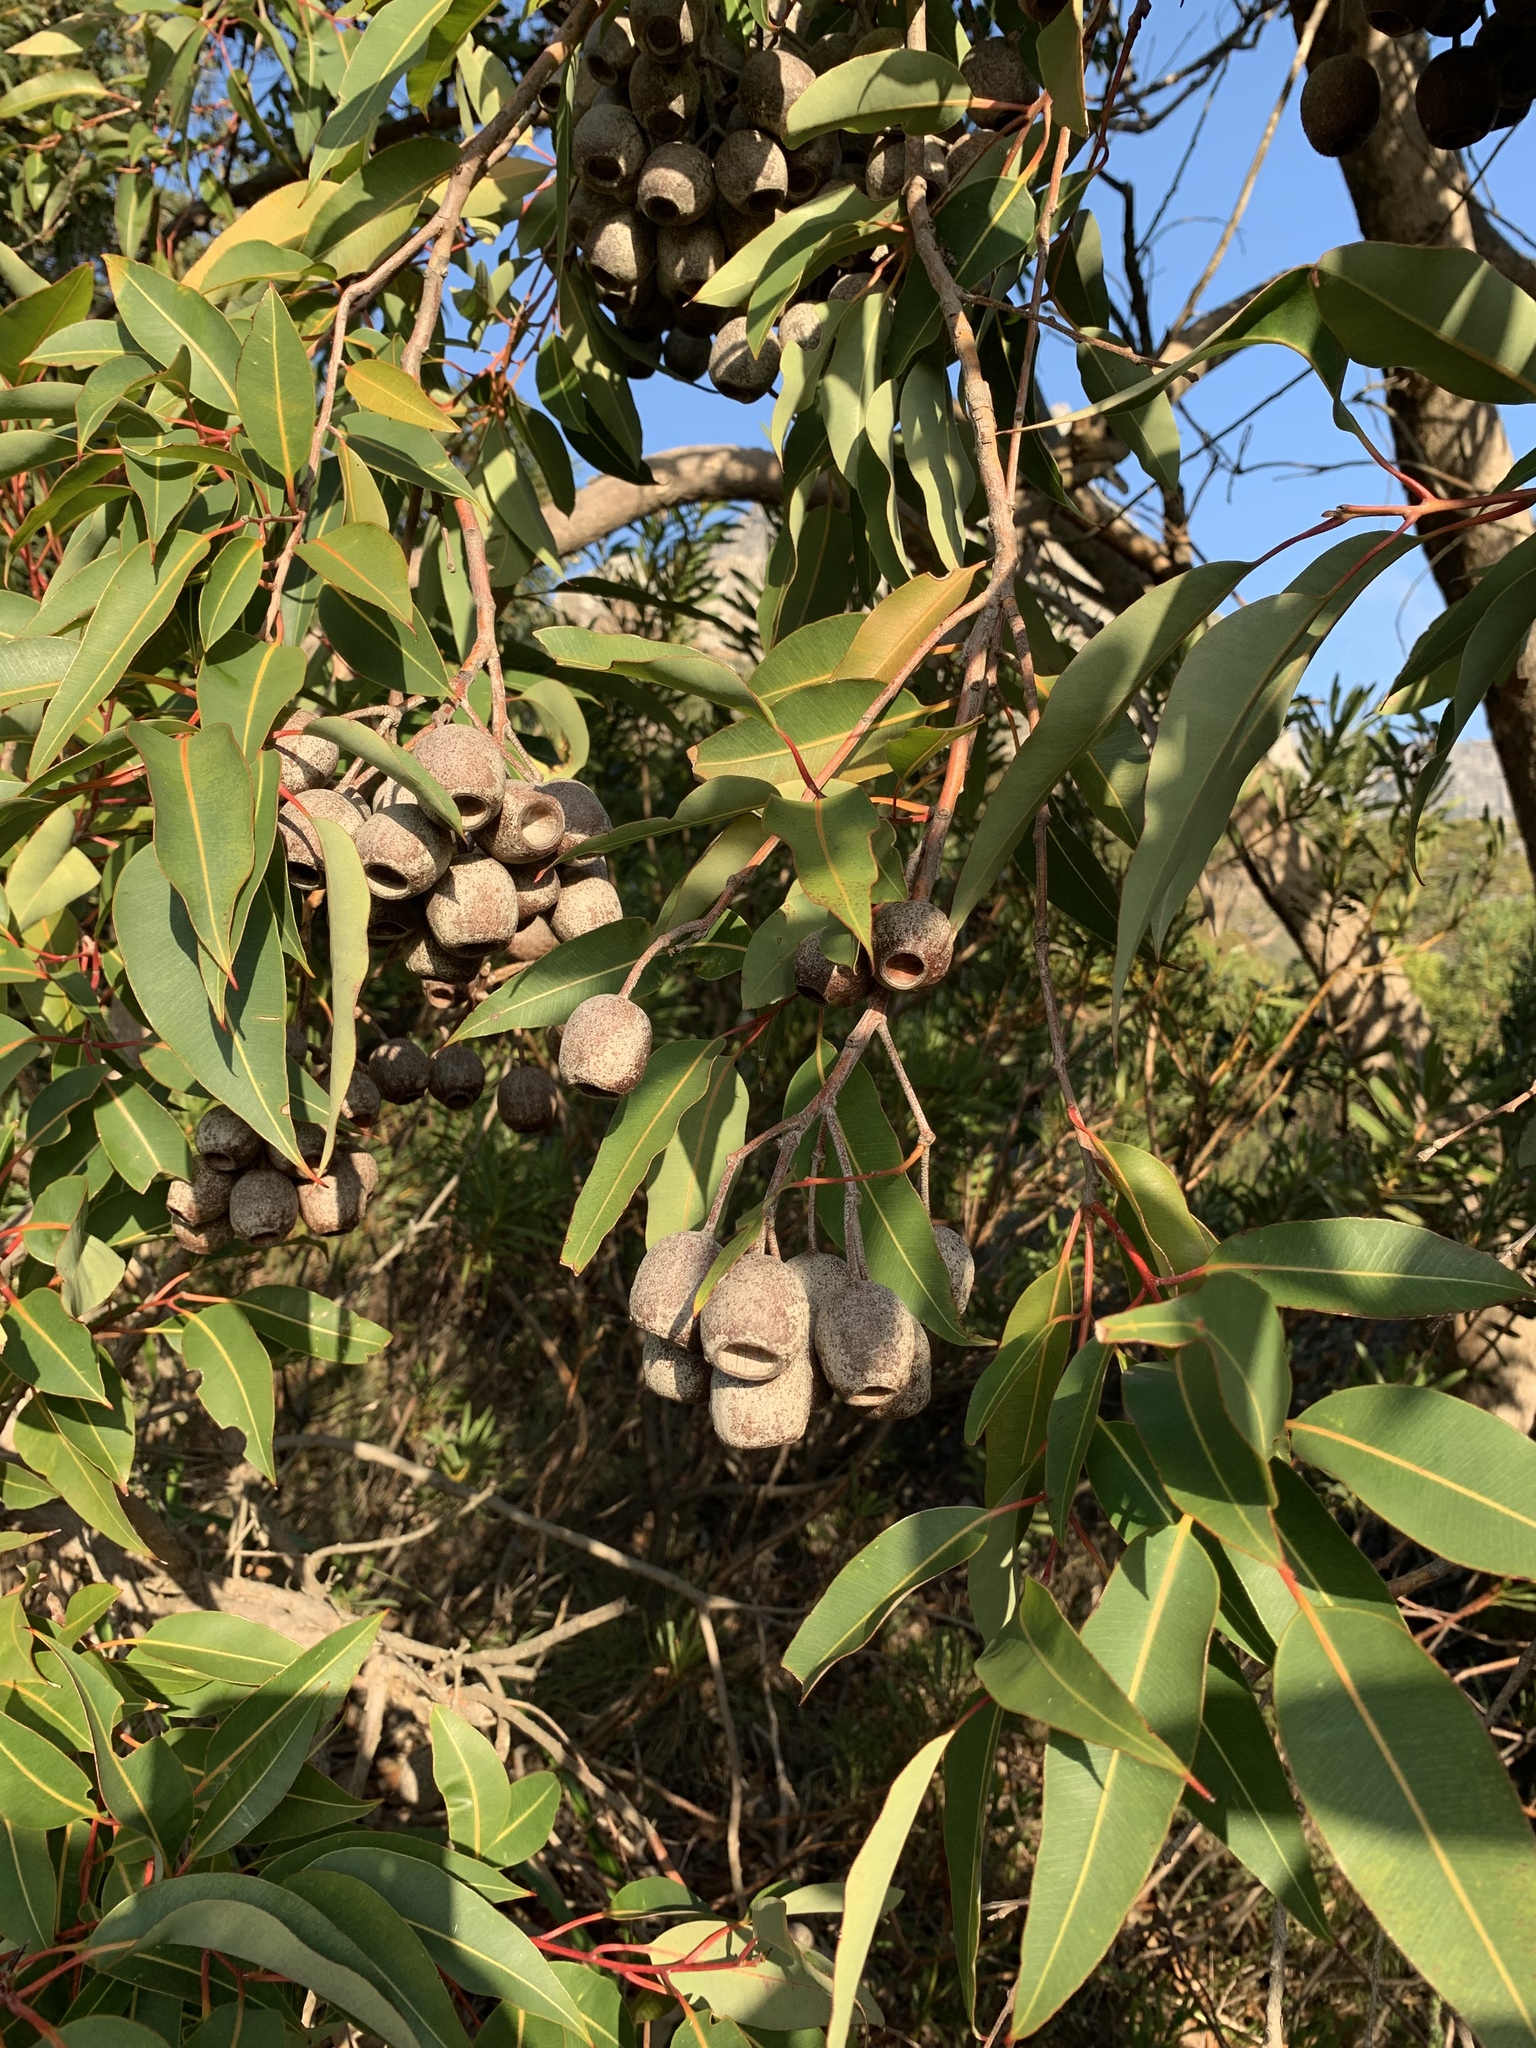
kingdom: Plantae
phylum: Tracheophyta
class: Magnoliopsida
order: Myrtales
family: Myrtaceae
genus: Corymbia
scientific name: Corymbia ficifolia
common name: Redflower gum
